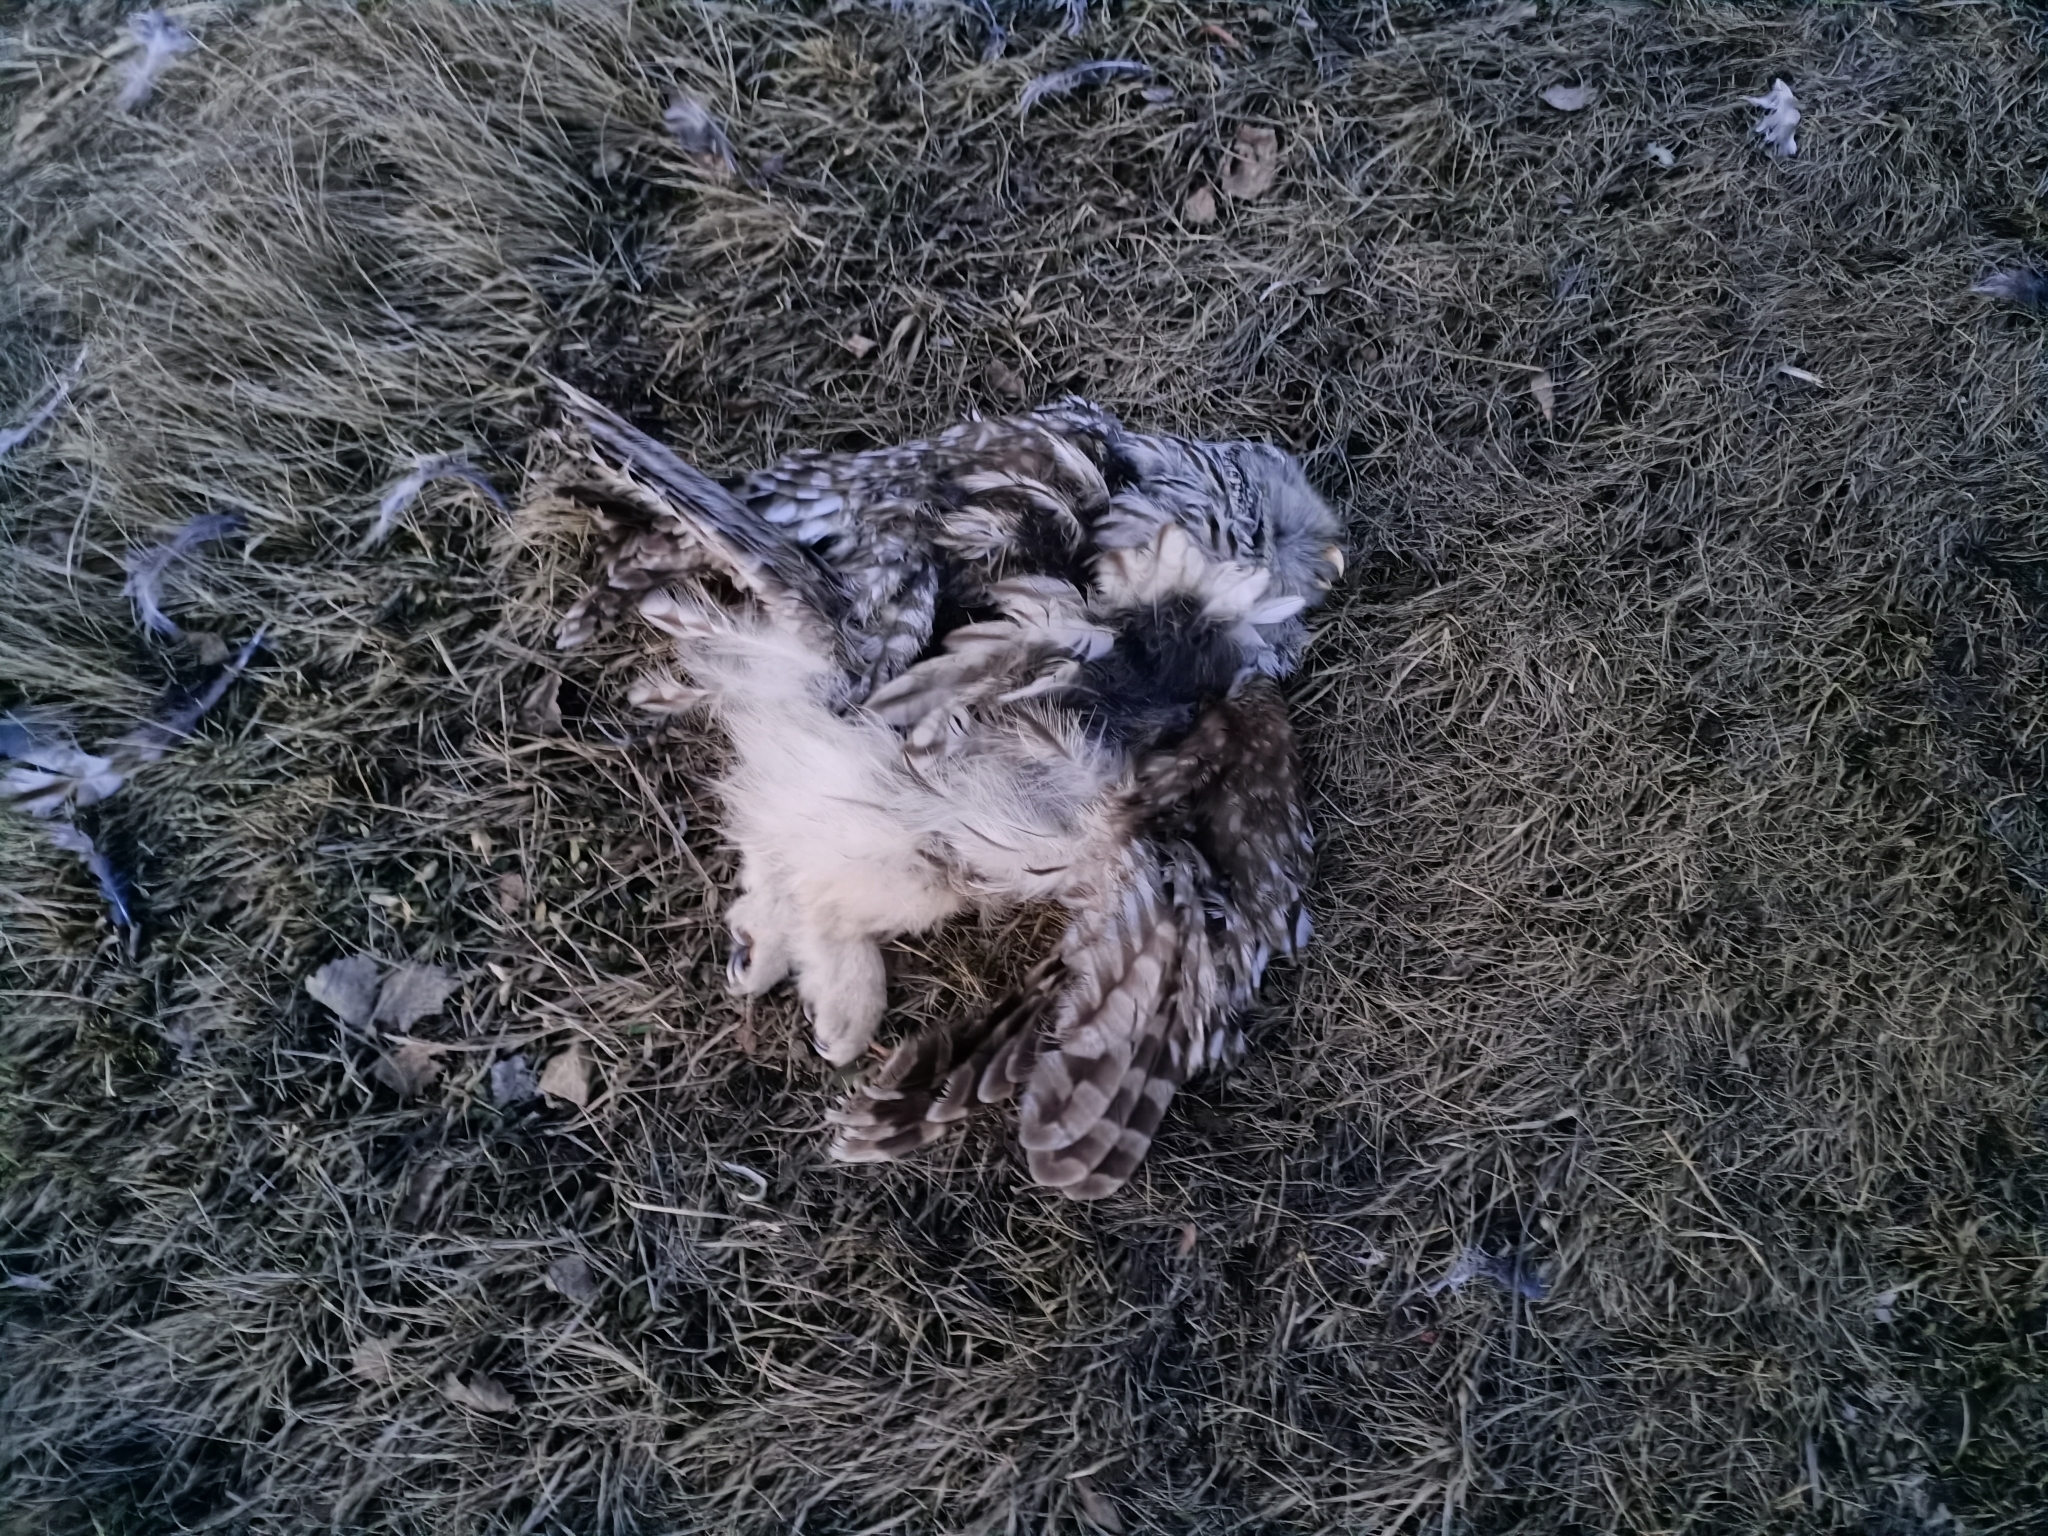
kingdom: Animalia
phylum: Chordata
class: Aves
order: Strigiformes
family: Strigidae
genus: Strix
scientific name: Strix uralensis
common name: Ural owl
